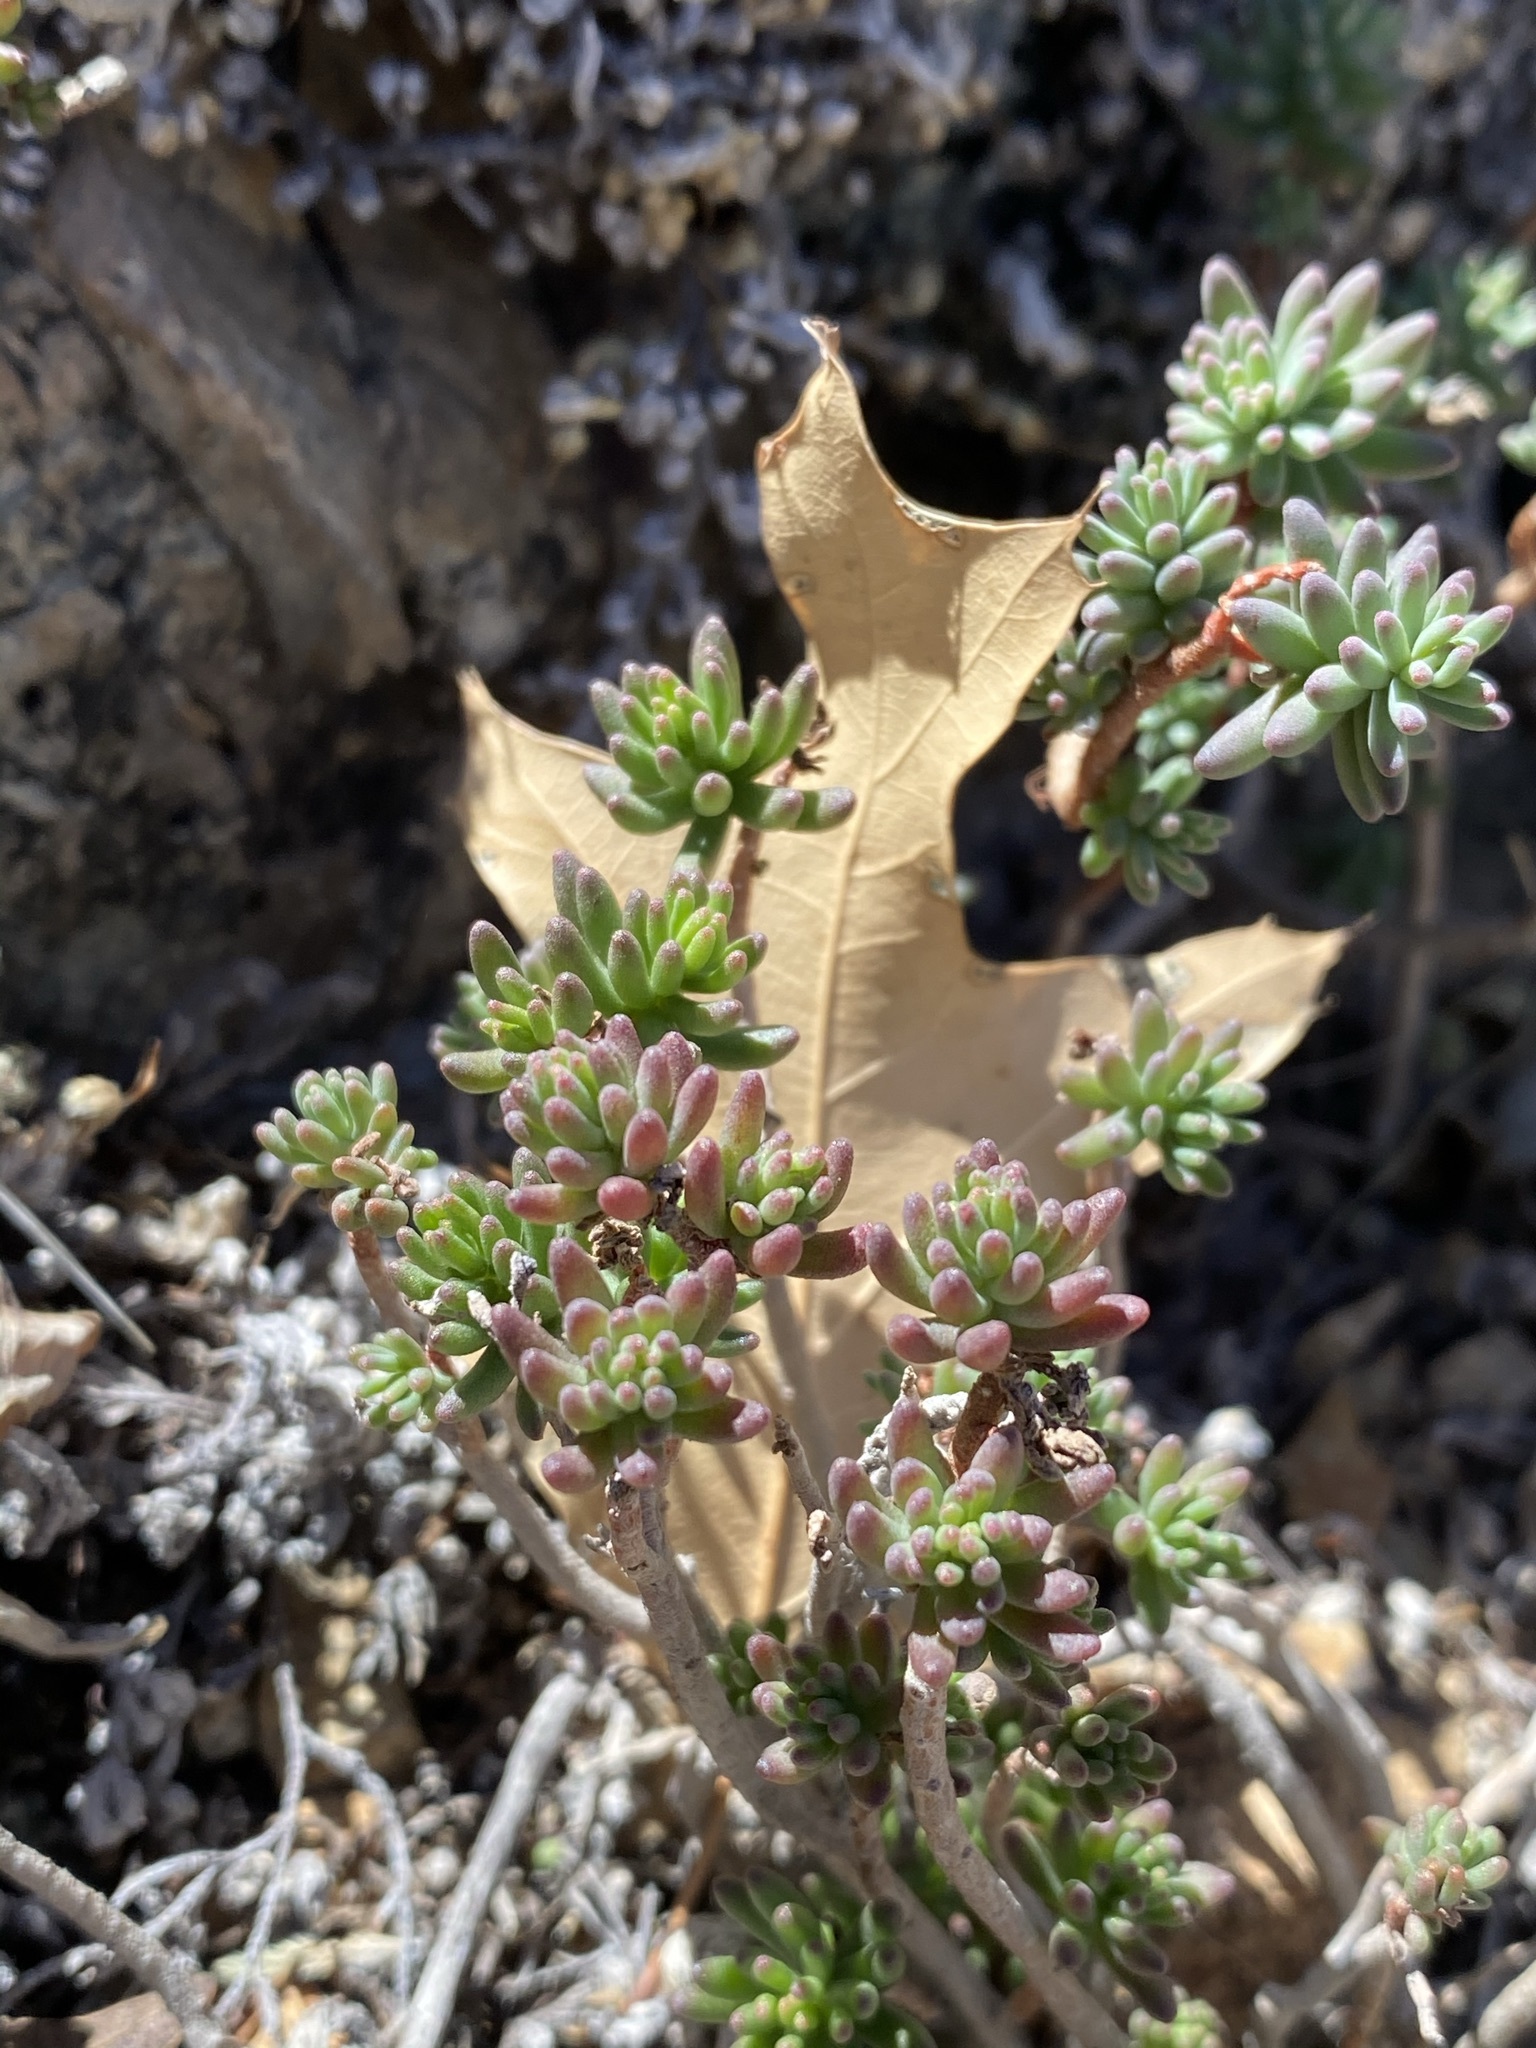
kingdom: Plantae
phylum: Tracheophyta
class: Magnoliopsida
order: Saxifragales
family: Crassulaceae
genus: Sedum
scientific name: Sedum havardii
